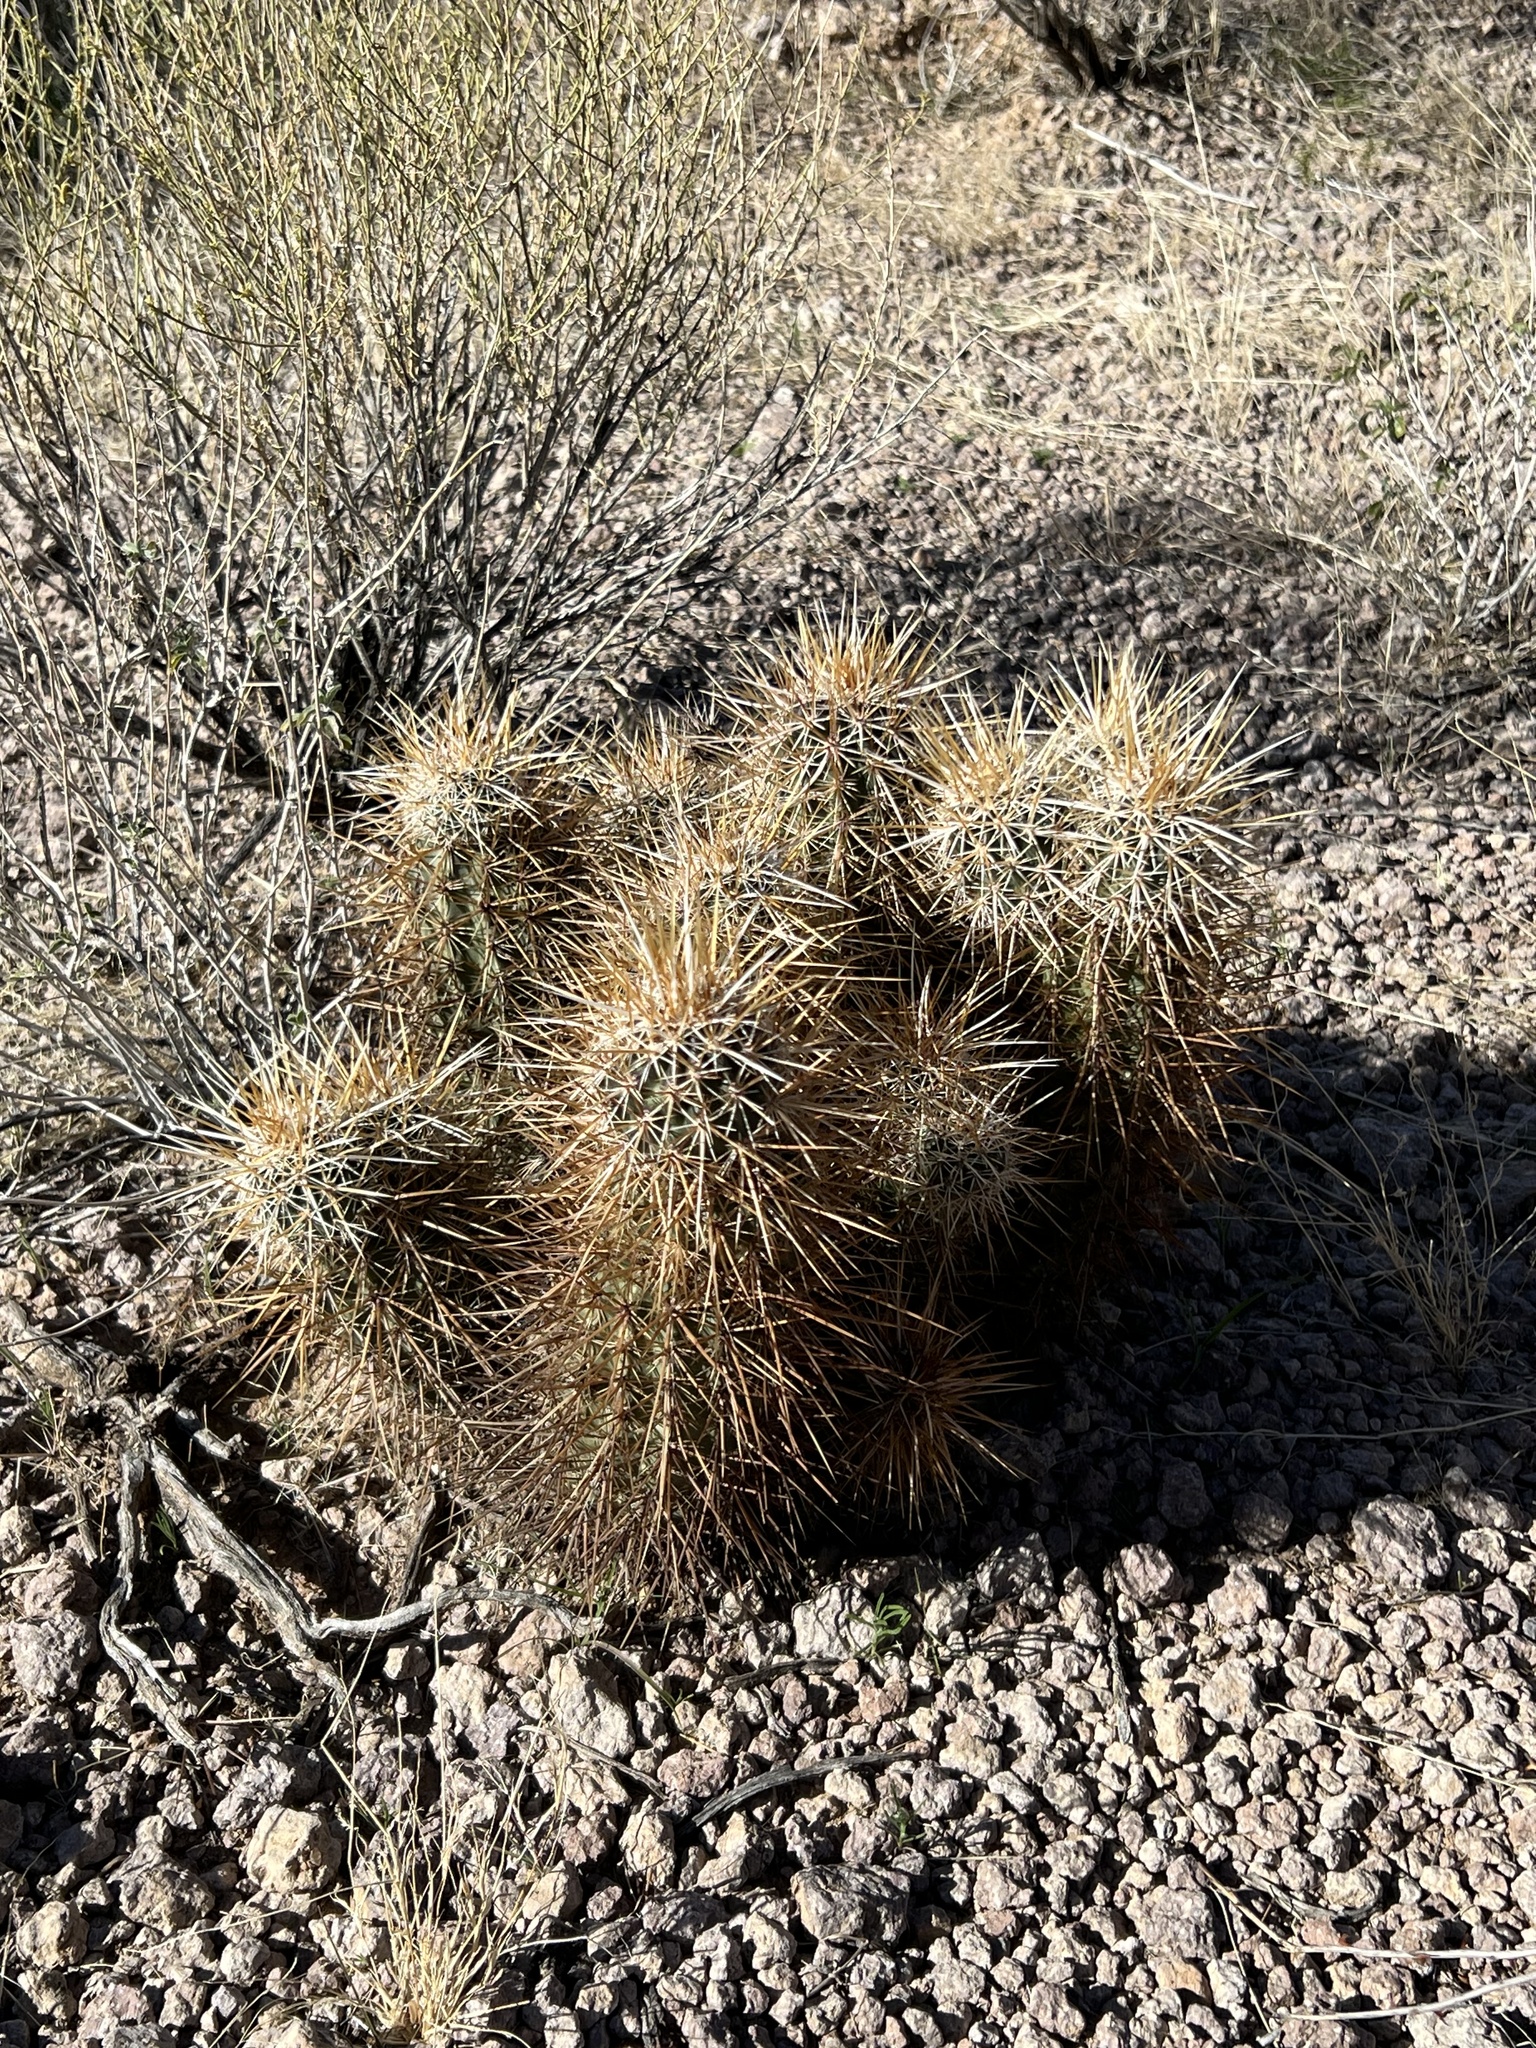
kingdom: Plantae
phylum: Tracheophyta
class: Magnoliopsida
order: Caryophyllales
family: Cactaceae
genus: Echinocereus
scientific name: Echinocereus engelmannii
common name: Engelmann's hedgehog cactus
